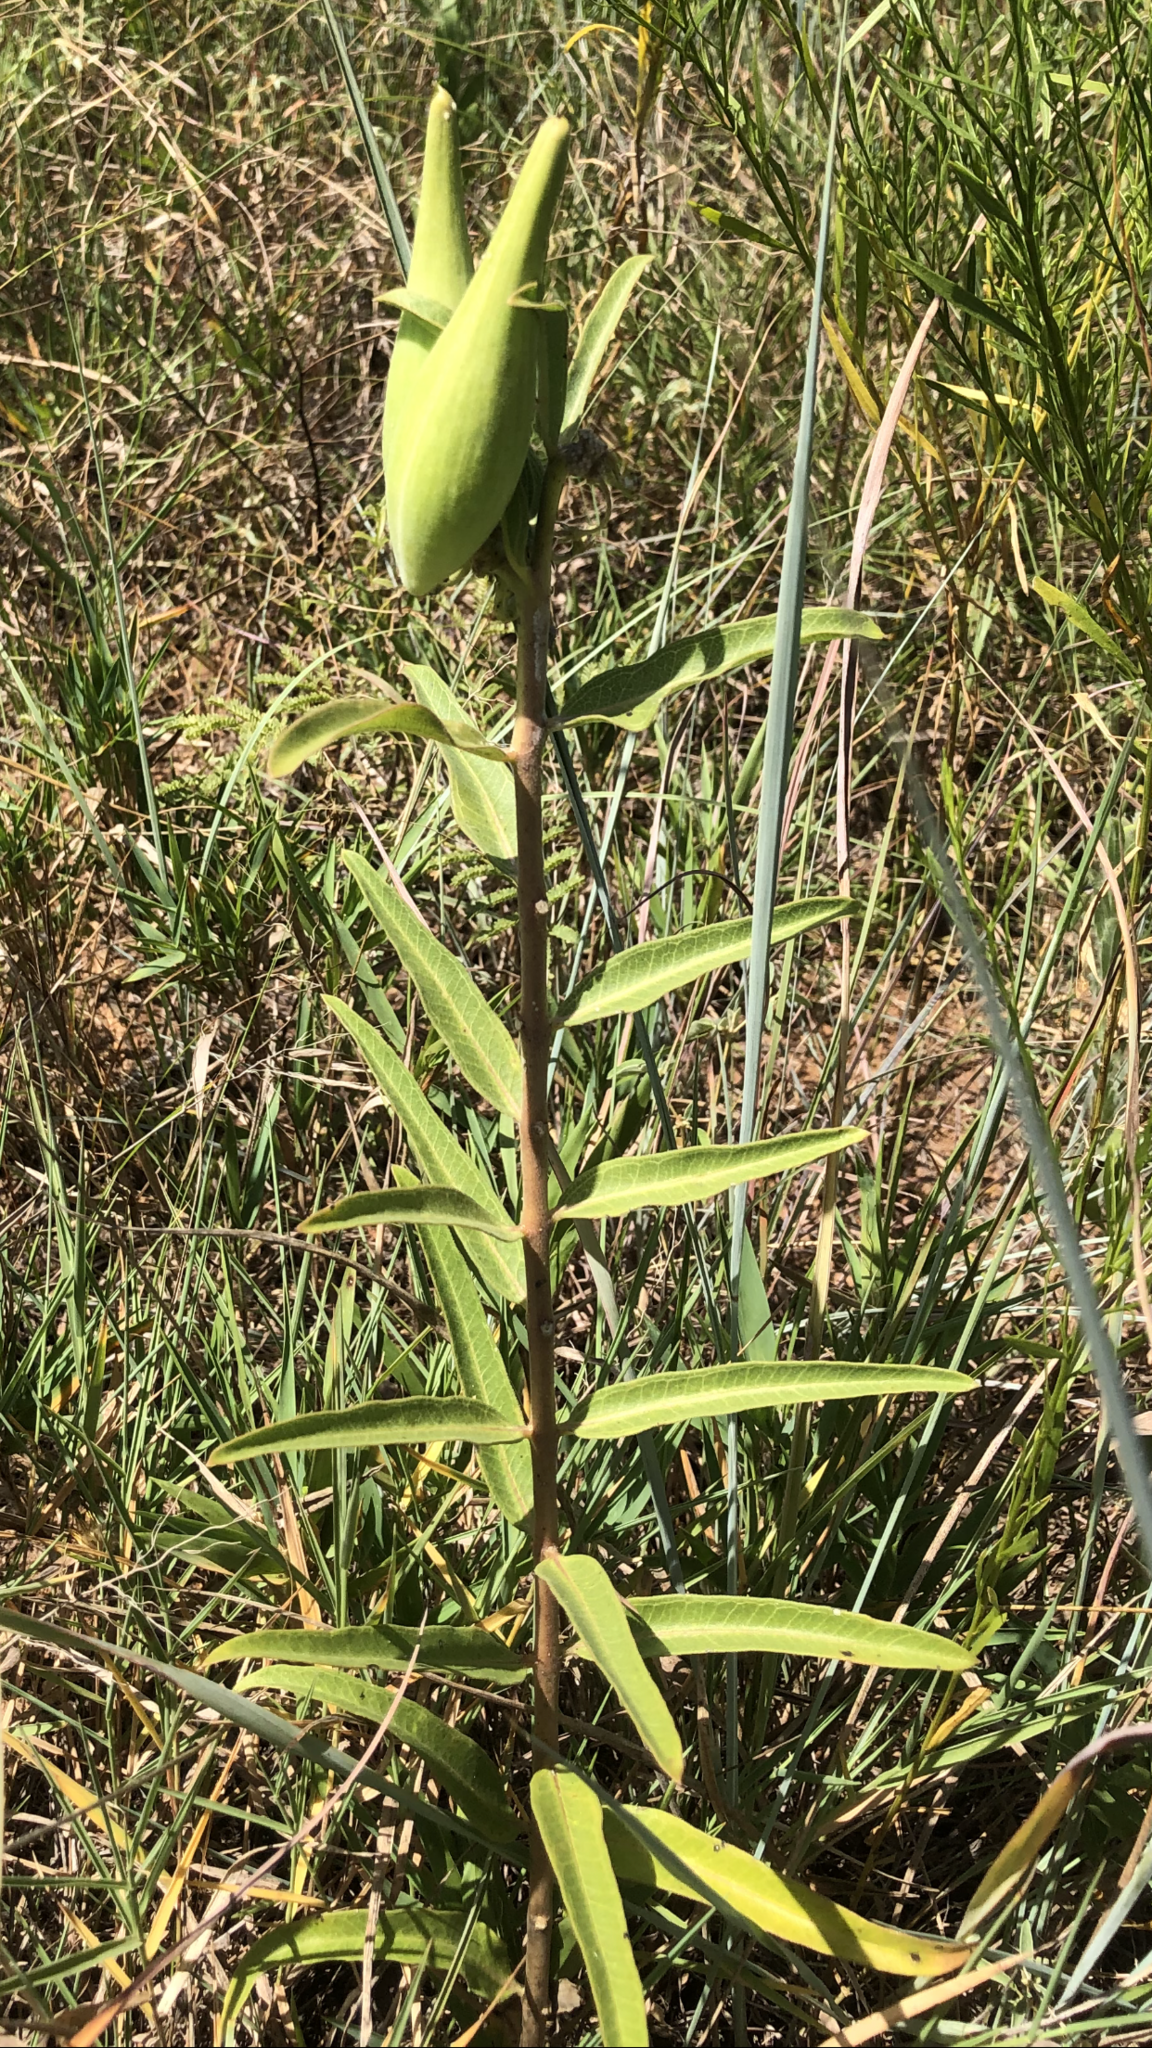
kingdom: Plantae
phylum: Tracheophyta
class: Magnoliopsida
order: Gentianales
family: Apocynaceae
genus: Asclepias
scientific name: Asclepias viridiflora
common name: Green comet milkweed
